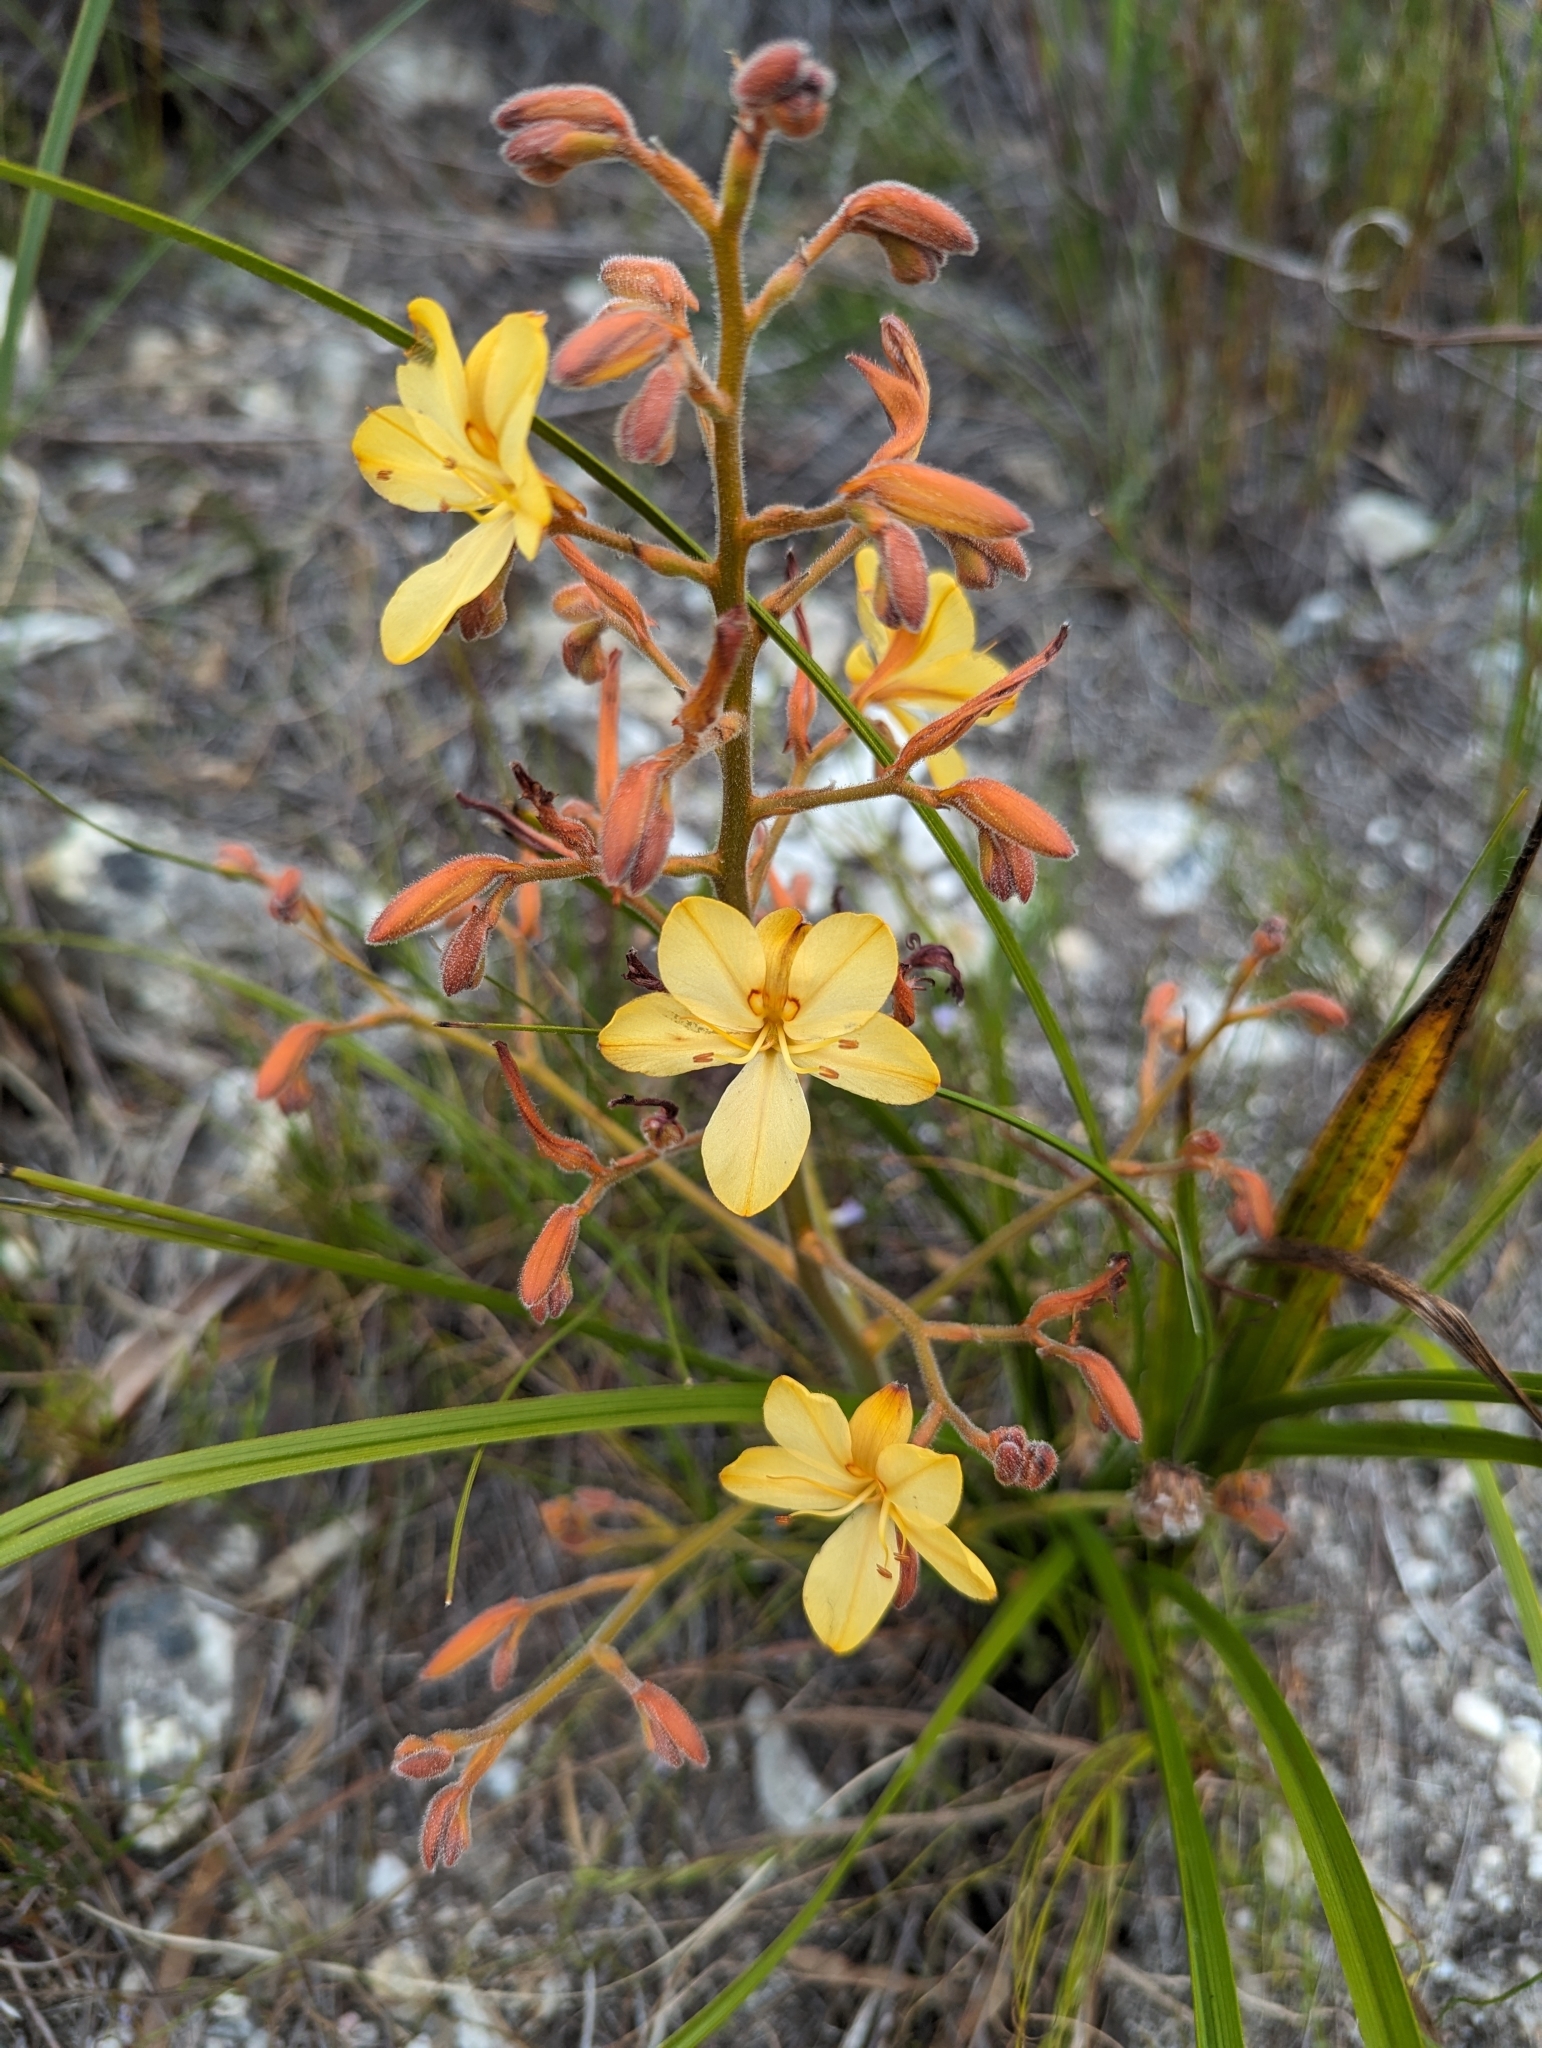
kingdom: Plantae
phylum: Tracheophyta
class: Liliopsida
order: Commelinales
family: Haemodoraceae
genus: Wachendorfia
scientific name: Wachendorfia paniculata
